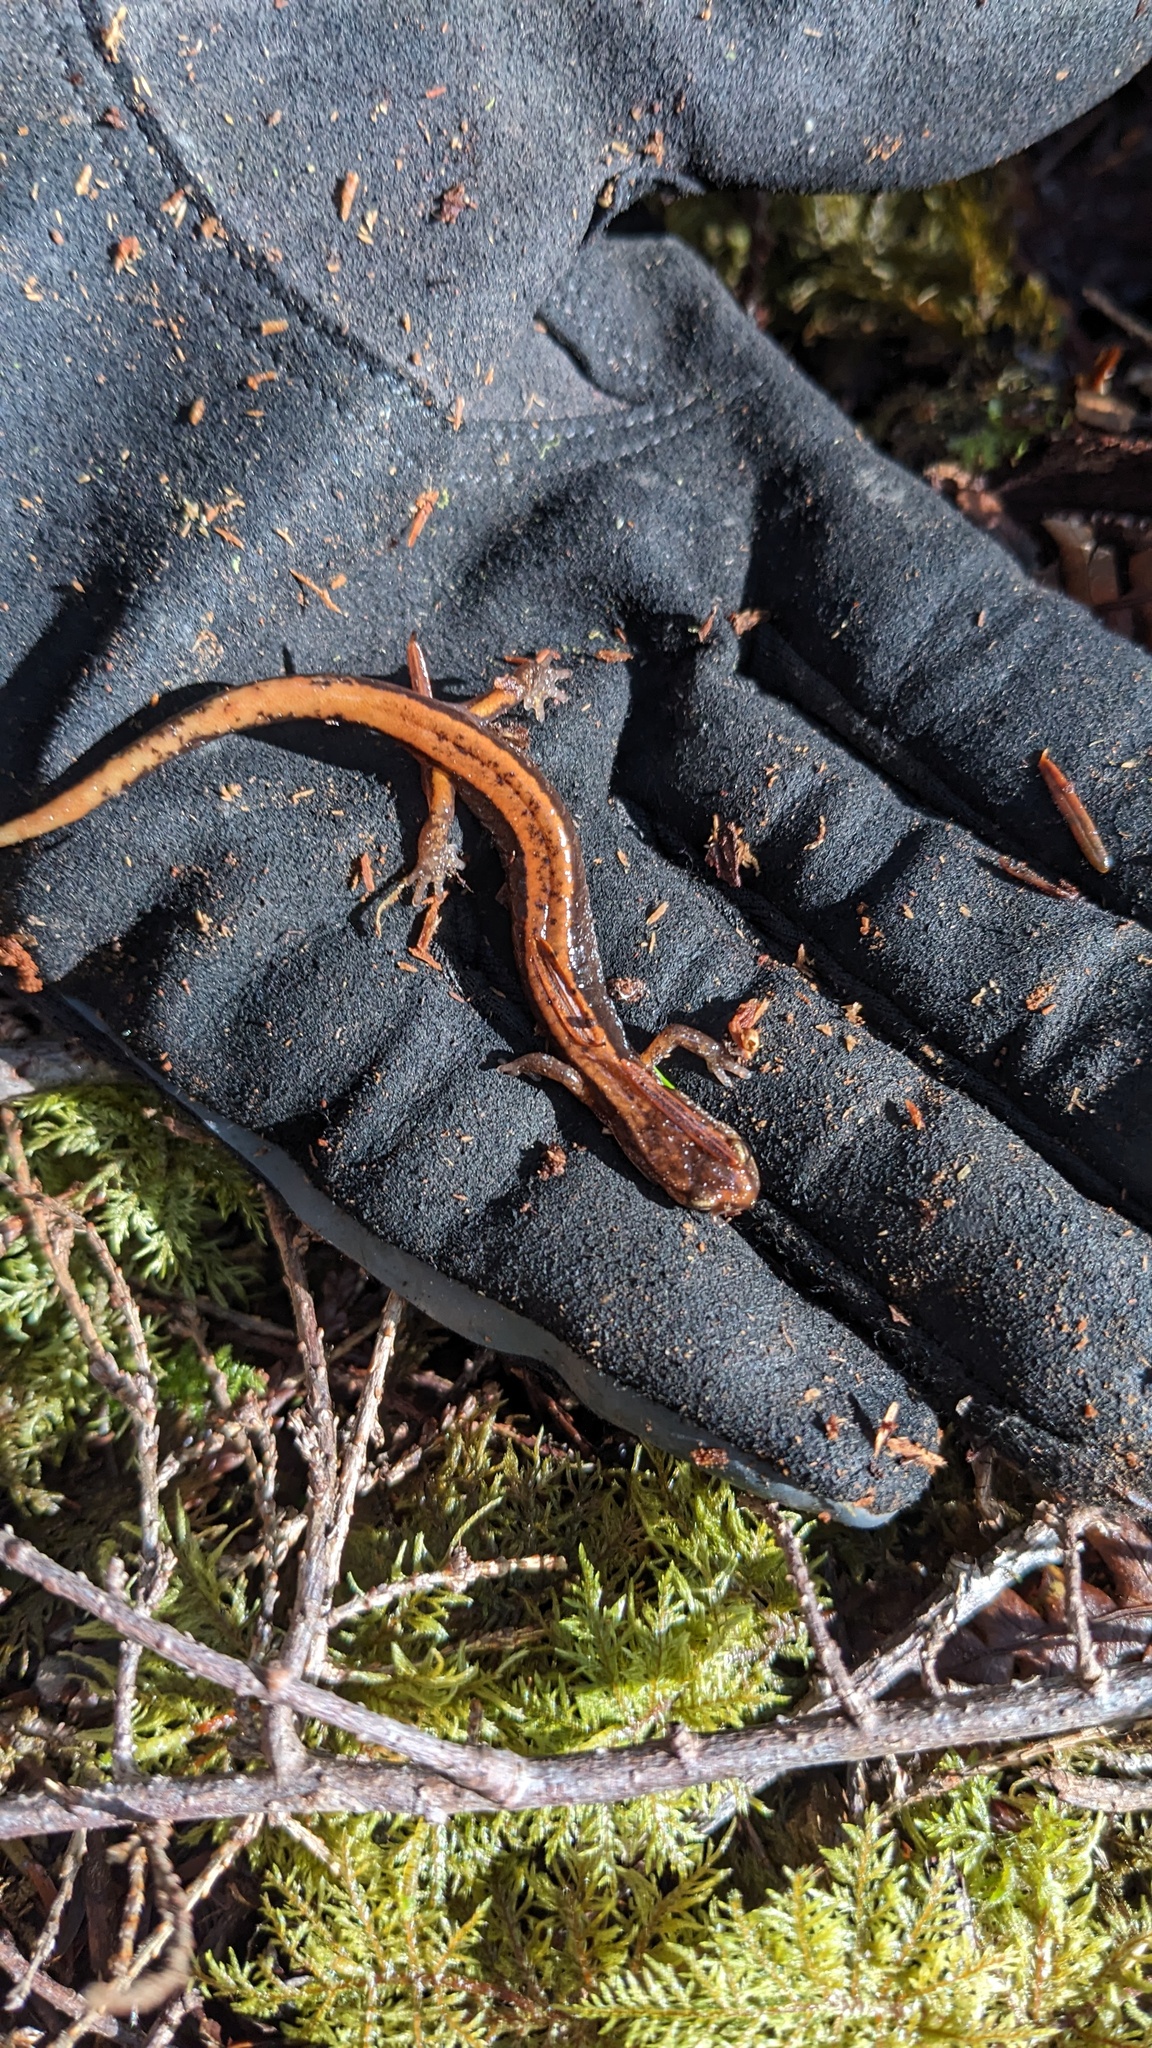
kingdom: Animalia
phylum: Chordata
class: Amphibia
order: Caudata
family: Plethodontidae
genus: Plethodon
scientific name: Plethodon vehiculum
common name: Western red-backed salamander
